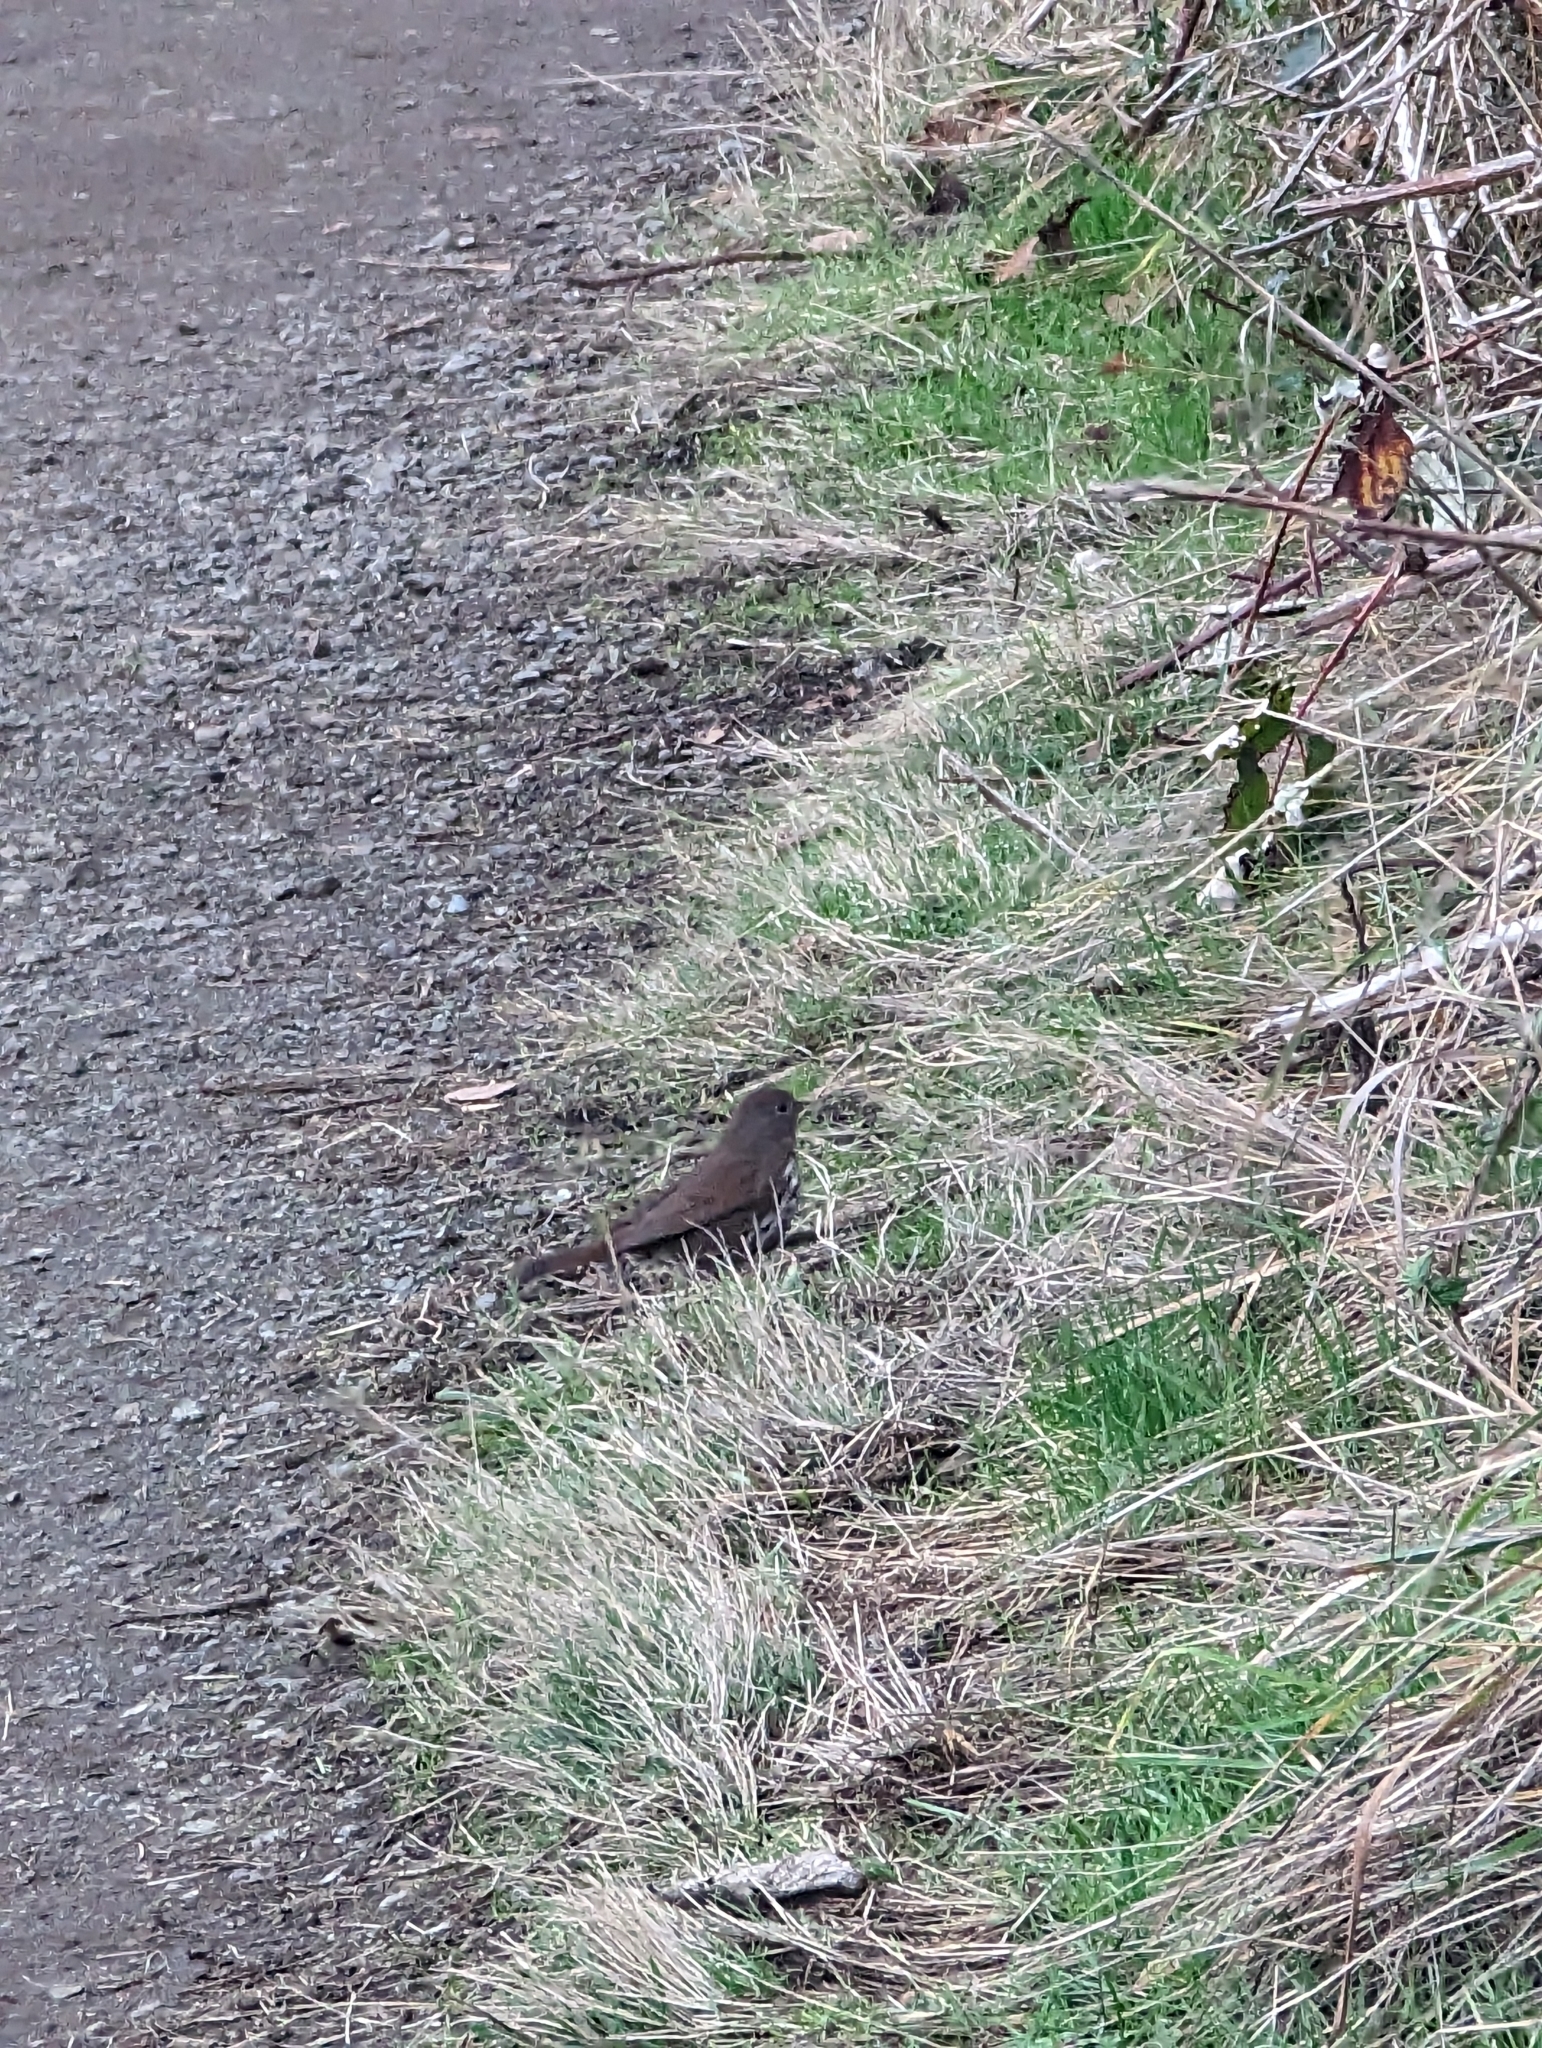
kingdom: Animalia
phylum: Chordata
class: Aves
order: Passeriformes
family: Passerellidae
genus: Passerella
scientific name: Passerella iliaca
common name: Fox sparrow
